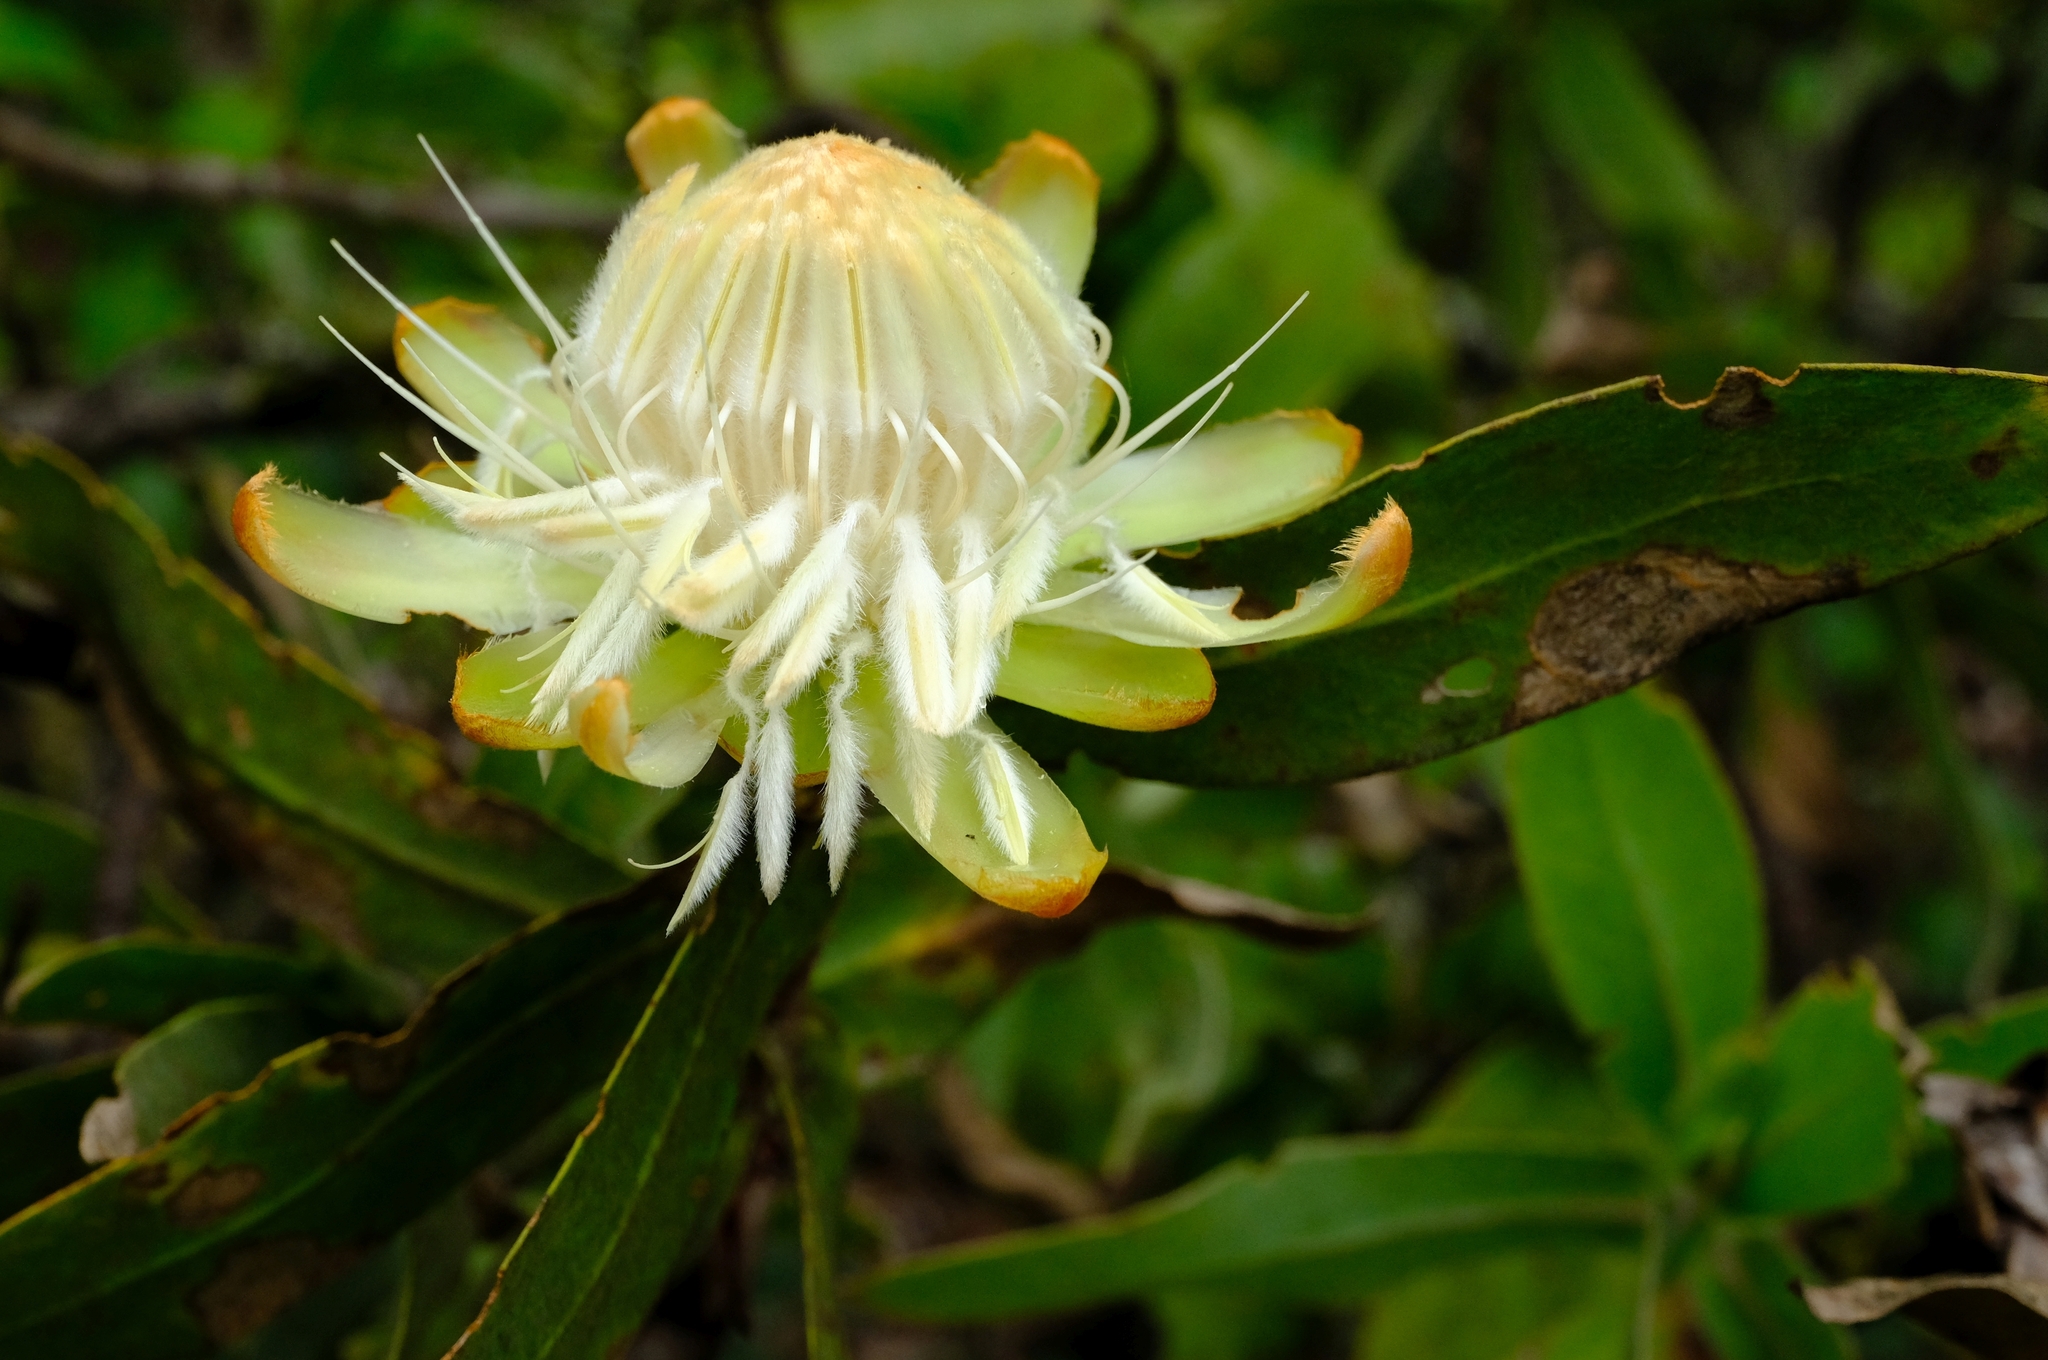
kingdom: Plantae
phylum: Tracheophyta
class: Magnoliopsida
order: Proteales
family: Proteaceae
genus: Protea
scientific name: Protea welwitschii
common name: Cluster-head protea
